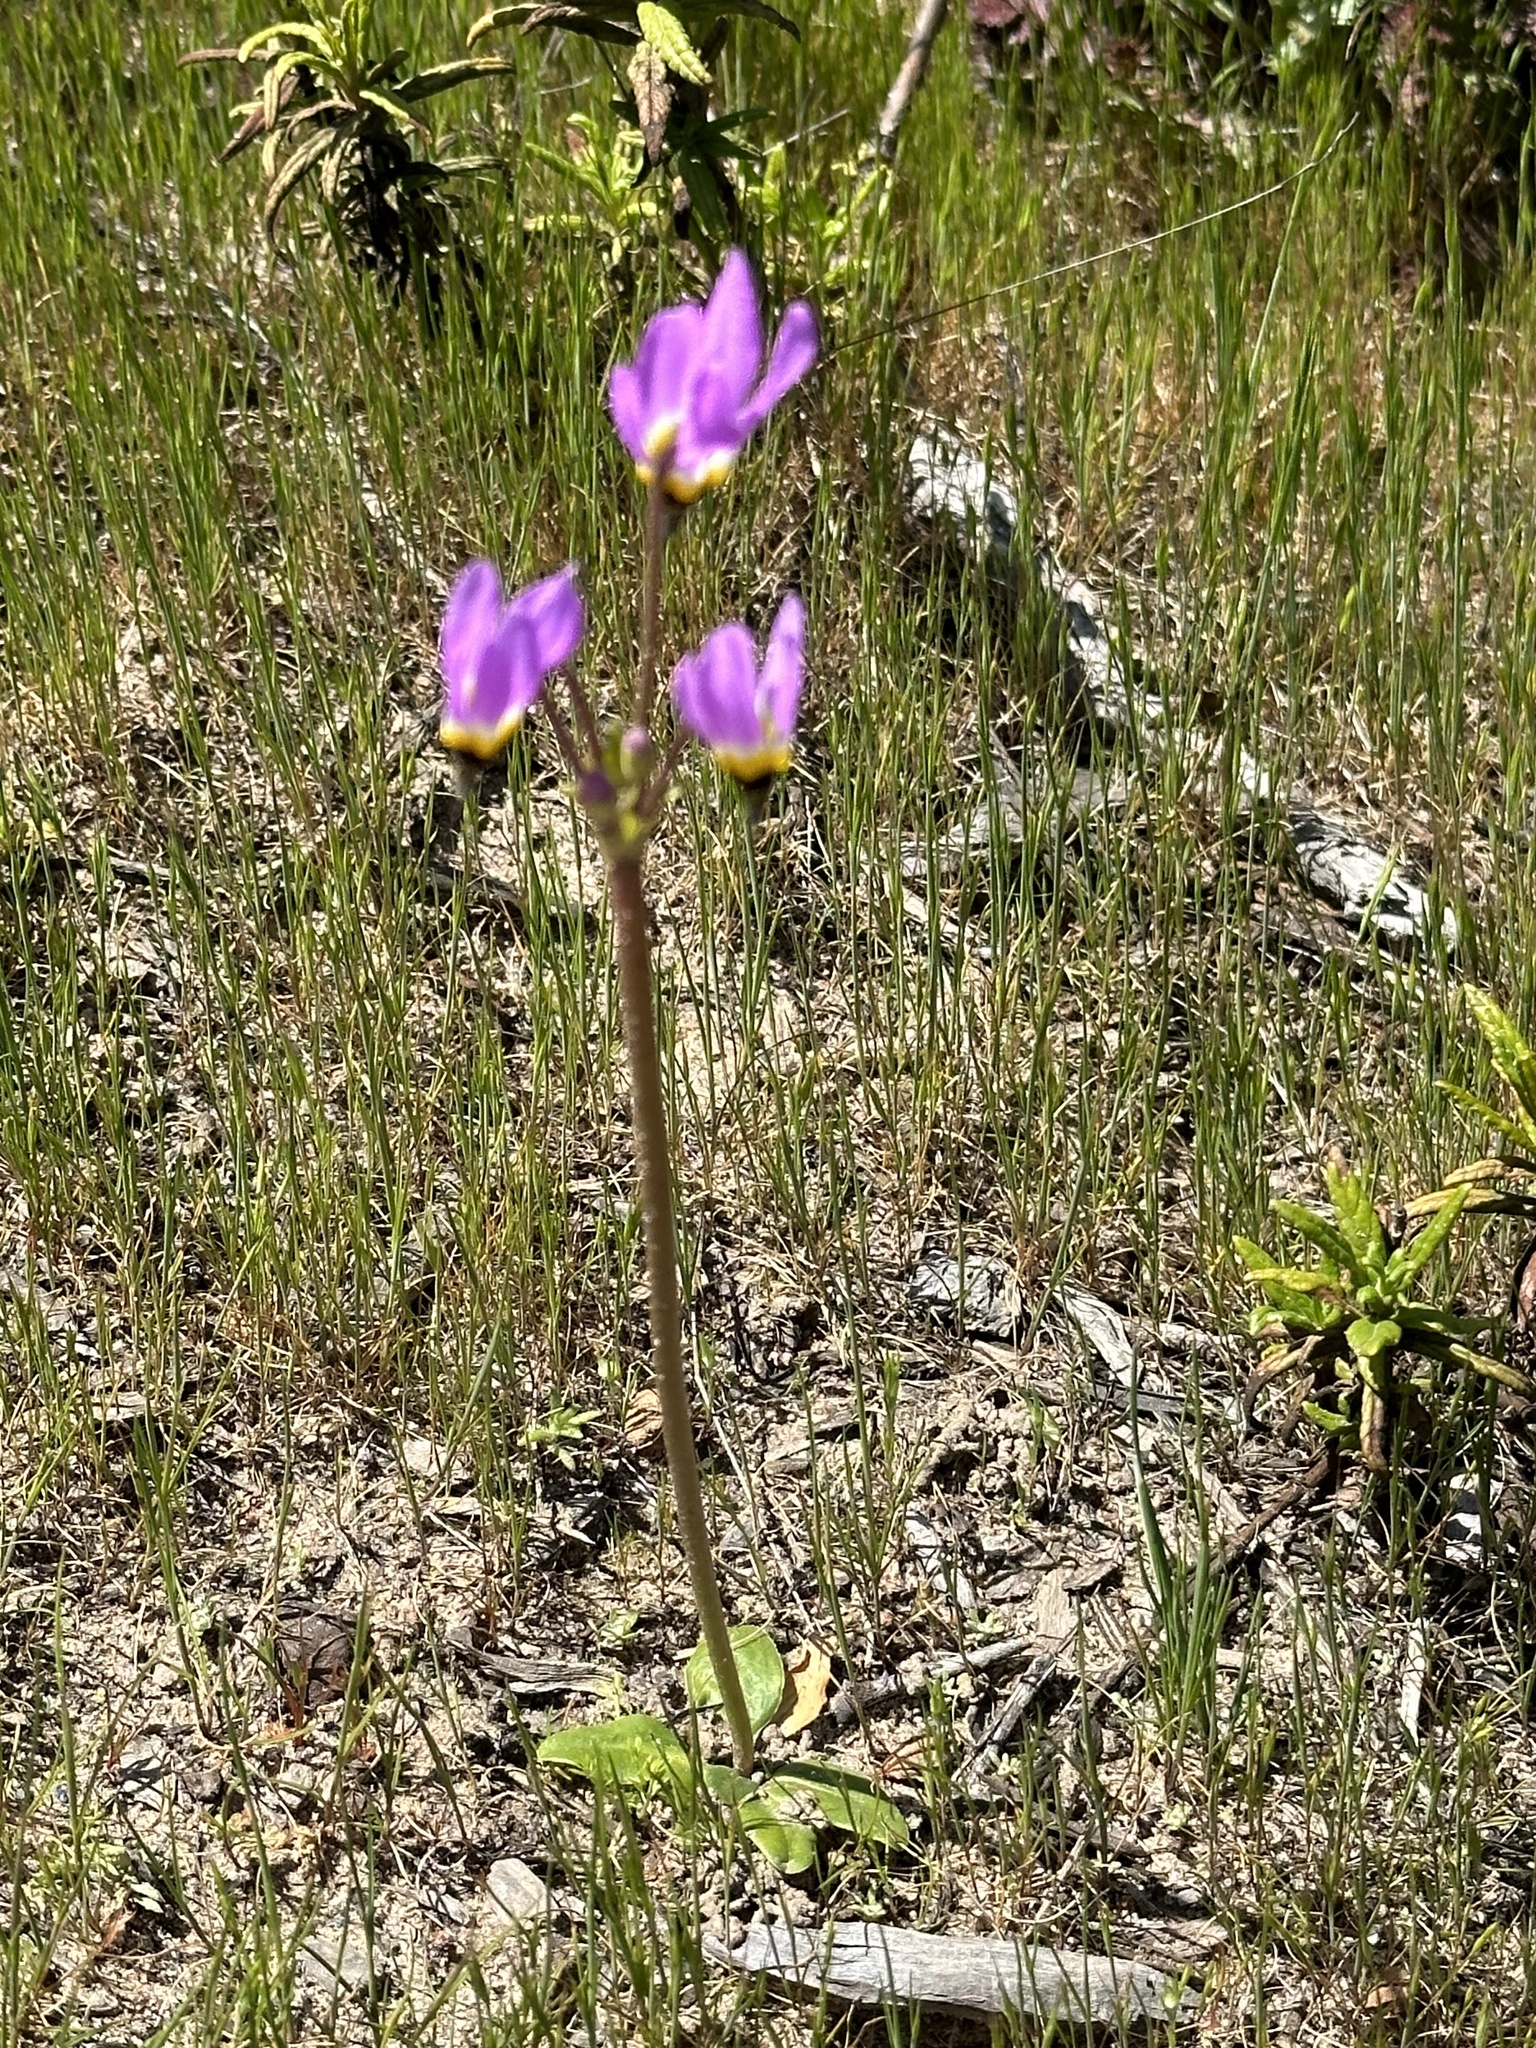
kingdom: Plantae
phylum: Tracheophyta
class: Magnoliopsida
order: Ericales
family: Primulaceae
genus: Dodecatheon
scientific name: Dodecatheon clevelandii
